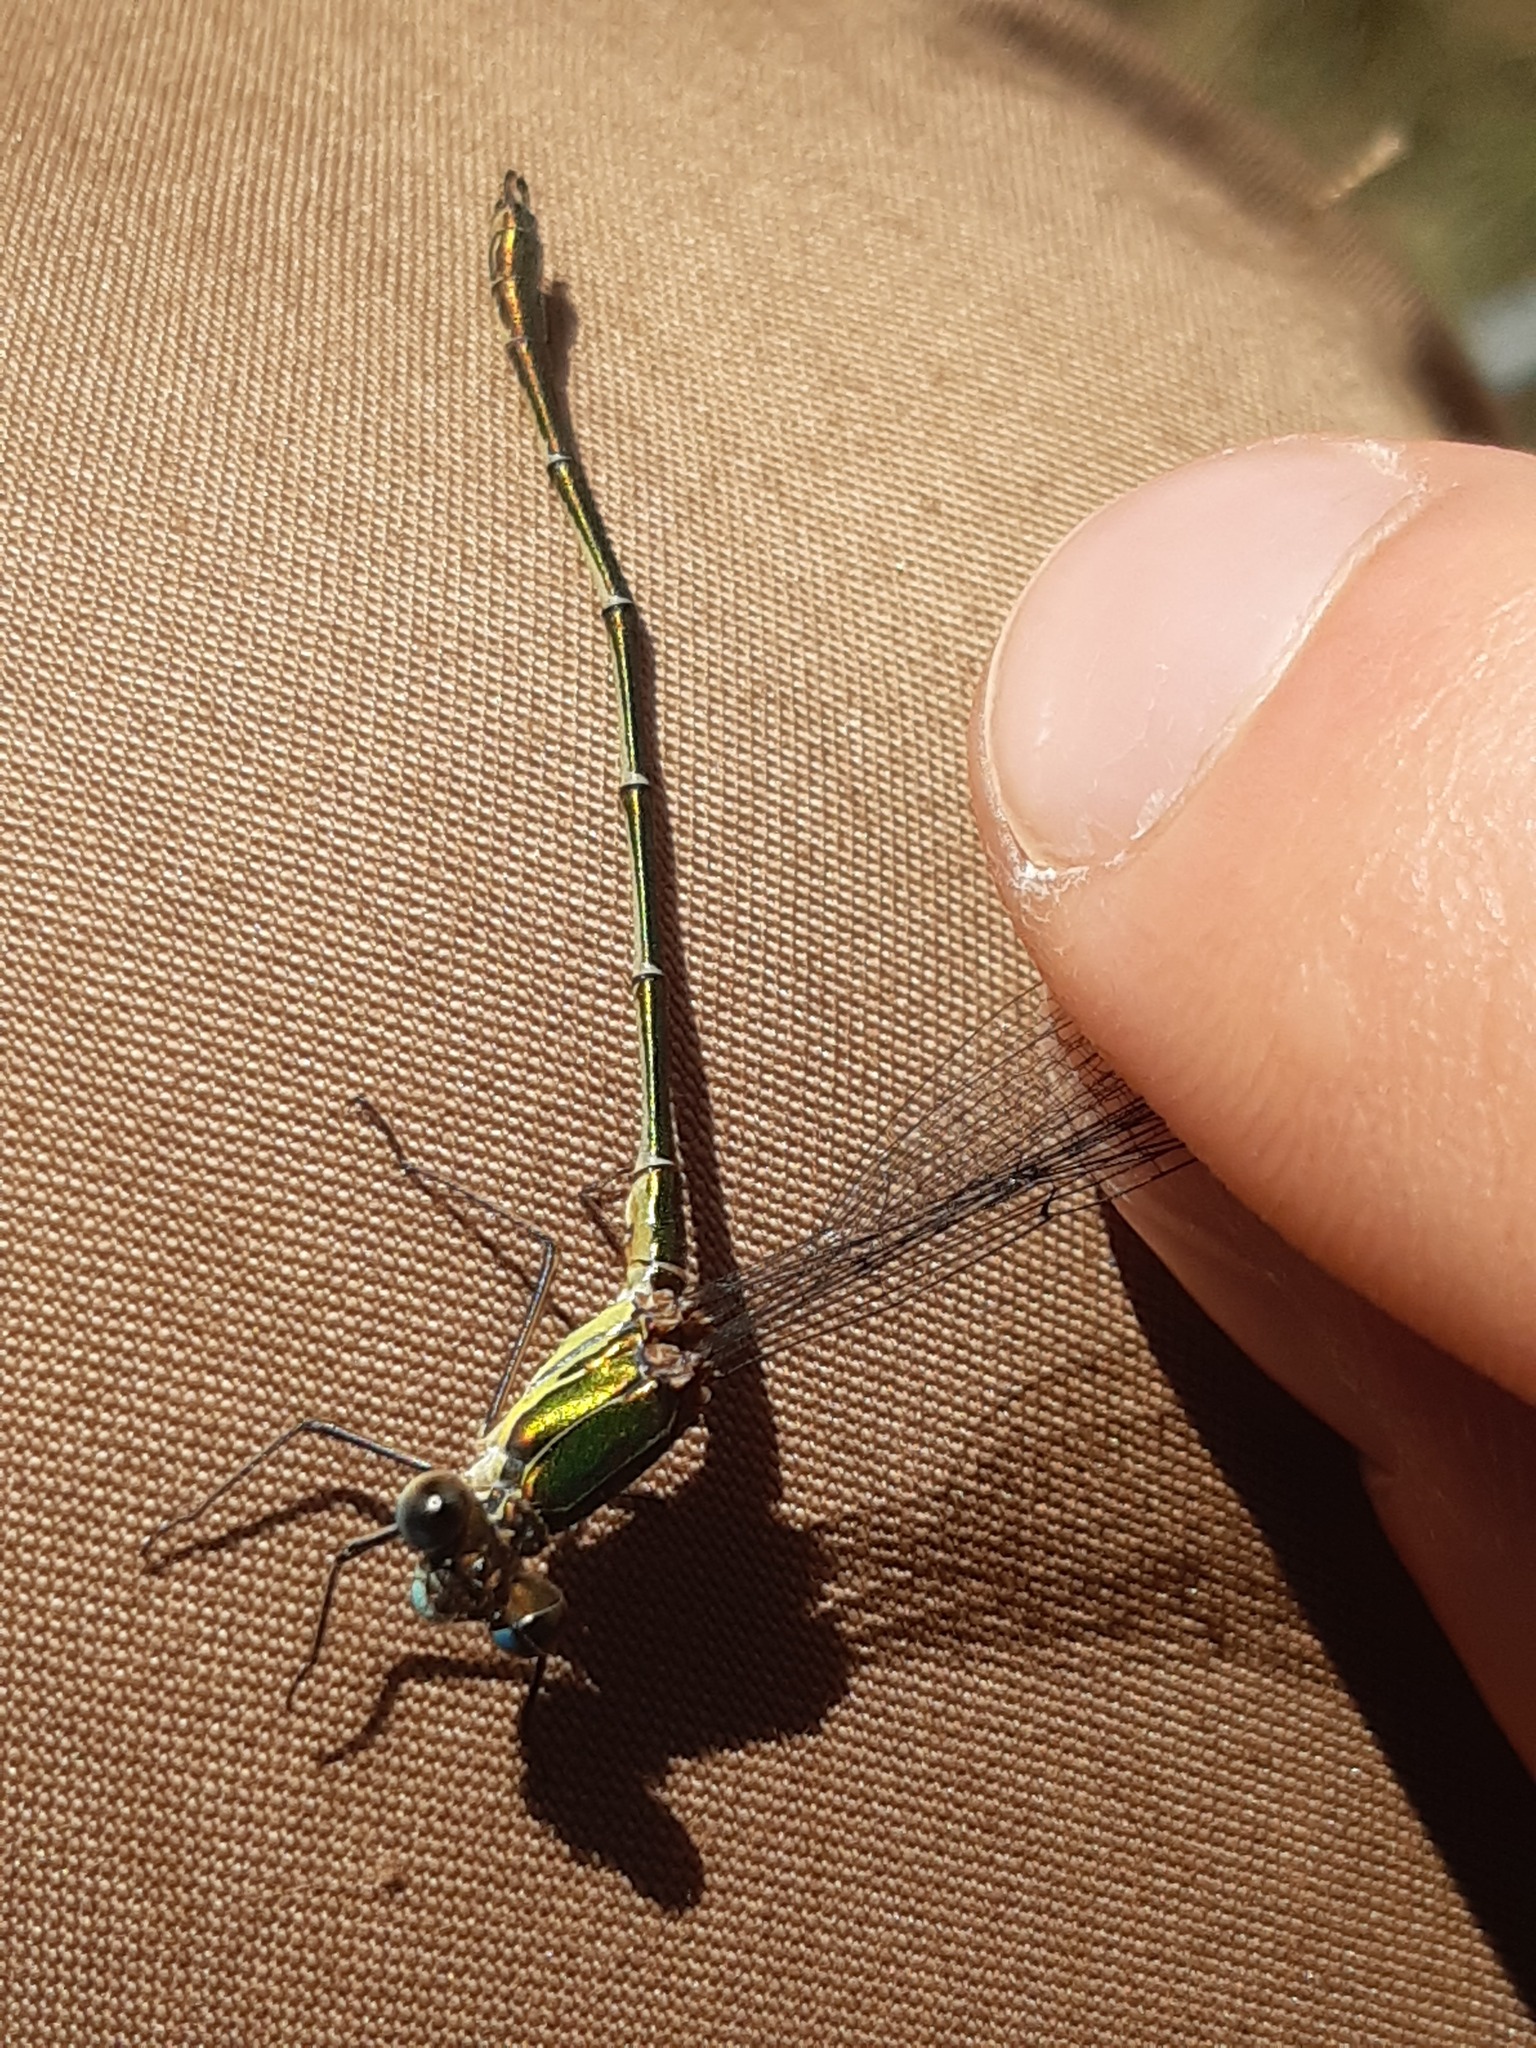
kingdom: Animalia
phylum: Arthropoda
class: Insecta
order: Odonata
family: Lestidae
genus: Chalcolestes
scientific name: Chalcolestes viridis
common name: Green emerald damselfly
